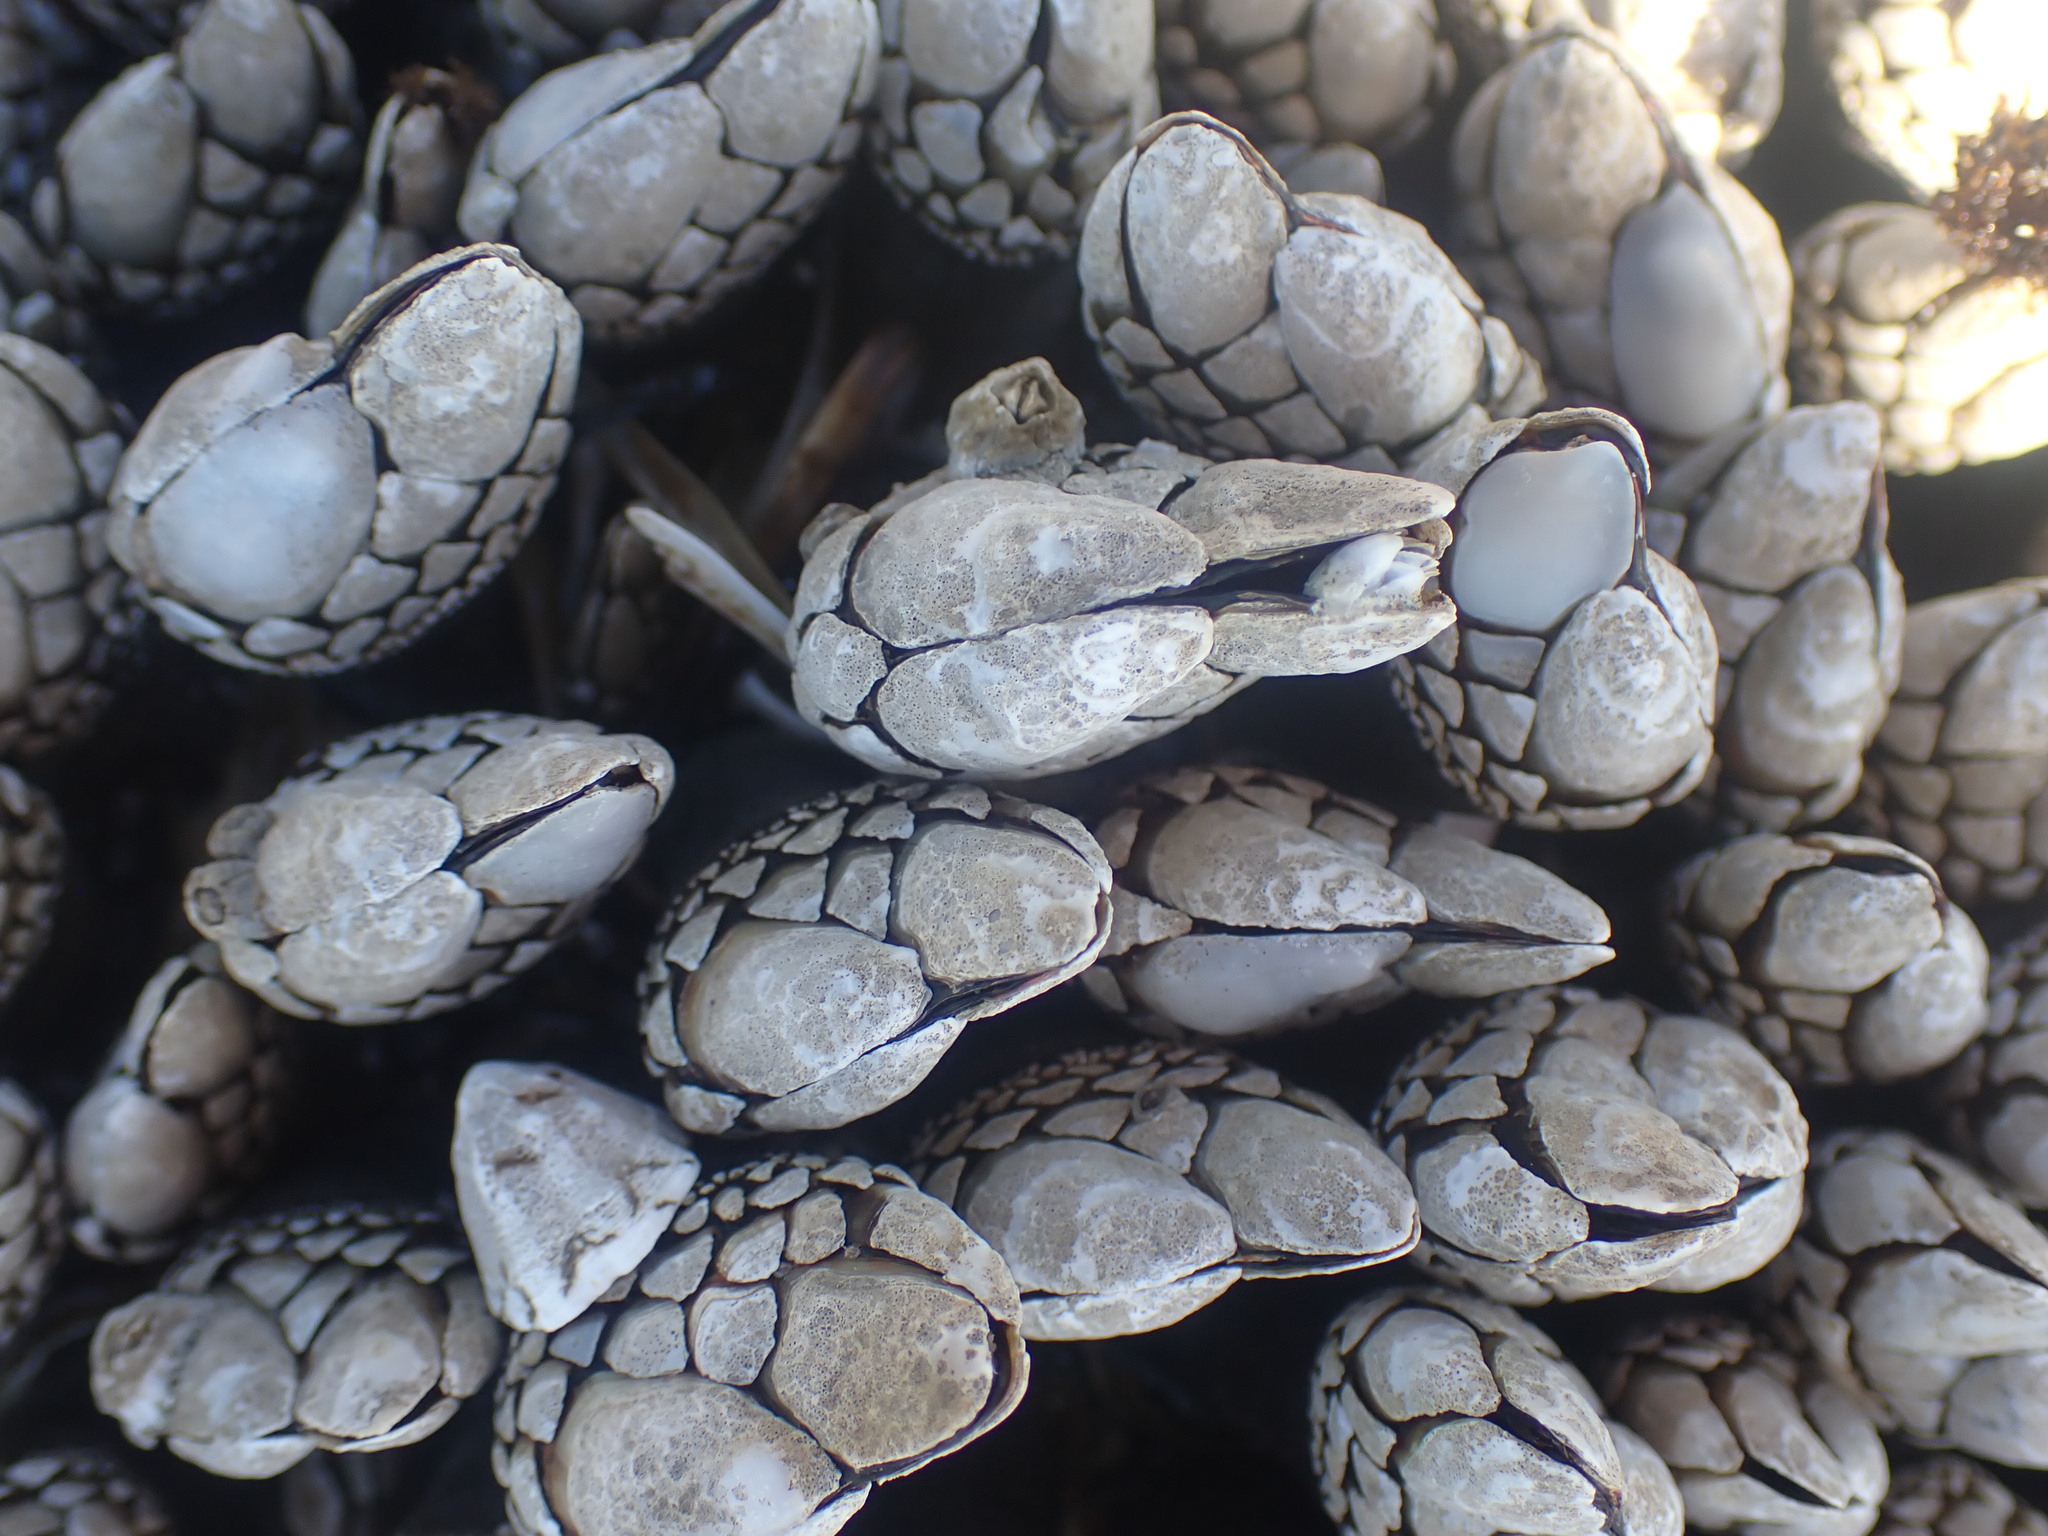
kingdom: Animalia
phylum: Arthropoda
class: Maxillopoda
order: Pedunculata
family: Pollicipedidae
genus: Pollicipes
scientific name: Pollicipes polymerus
